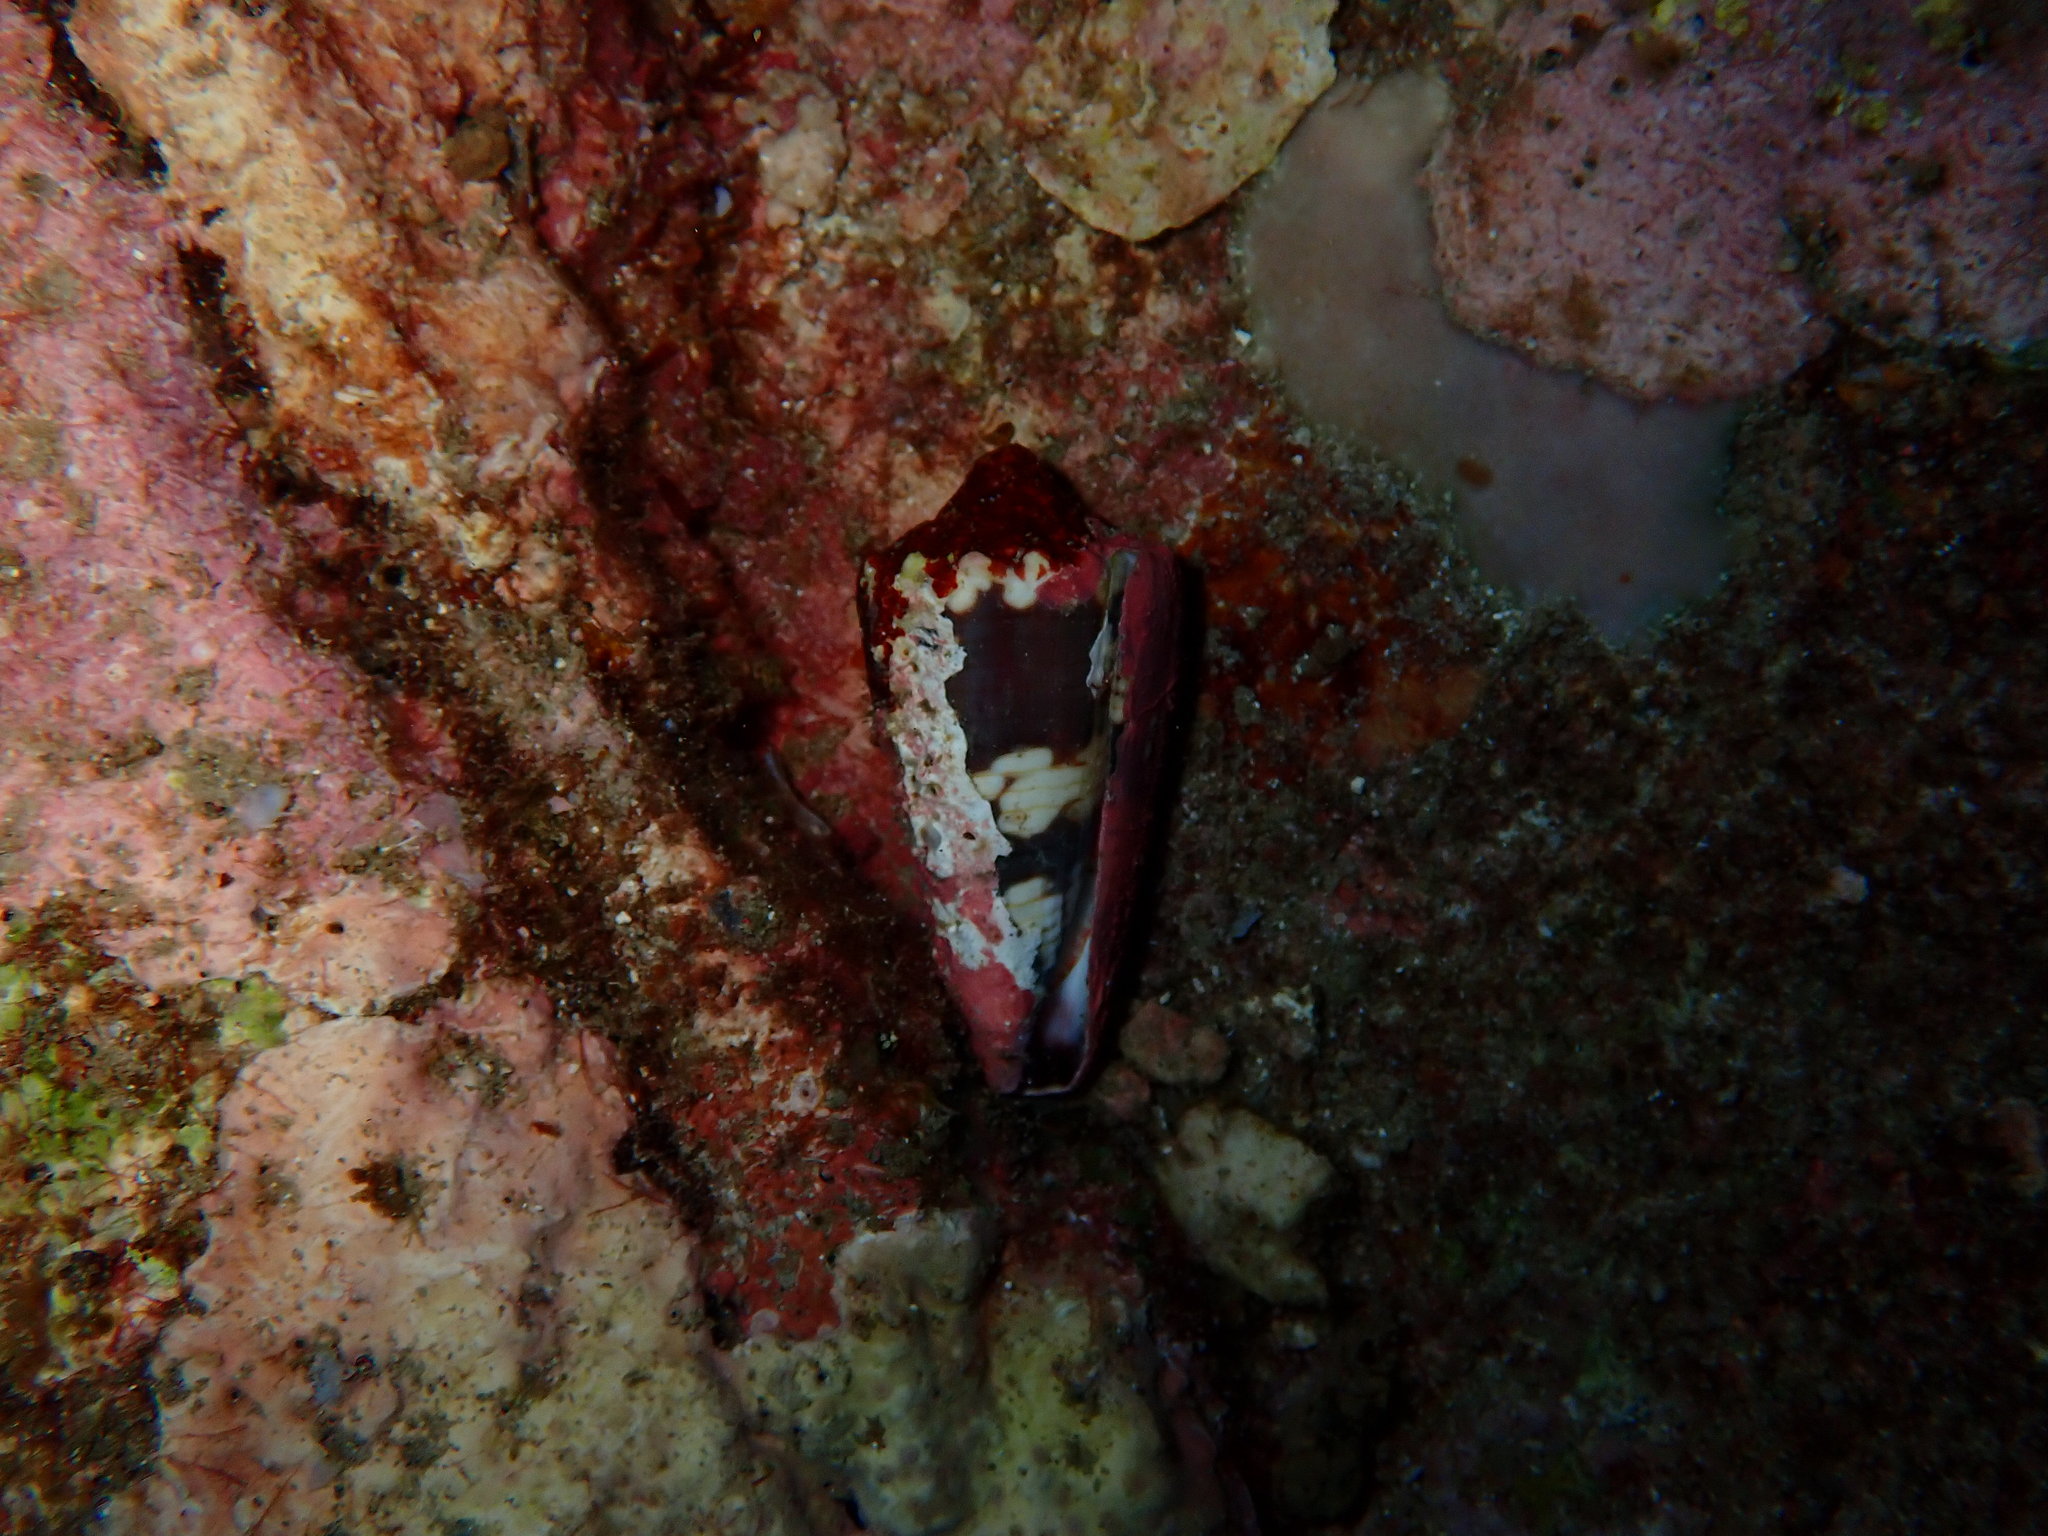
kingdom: Animalia
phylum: Mollusca
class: Gastropoda
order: Neogastropoda
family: Conidae
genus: Conus
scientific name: Conus zonatus
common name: Zoned cone
